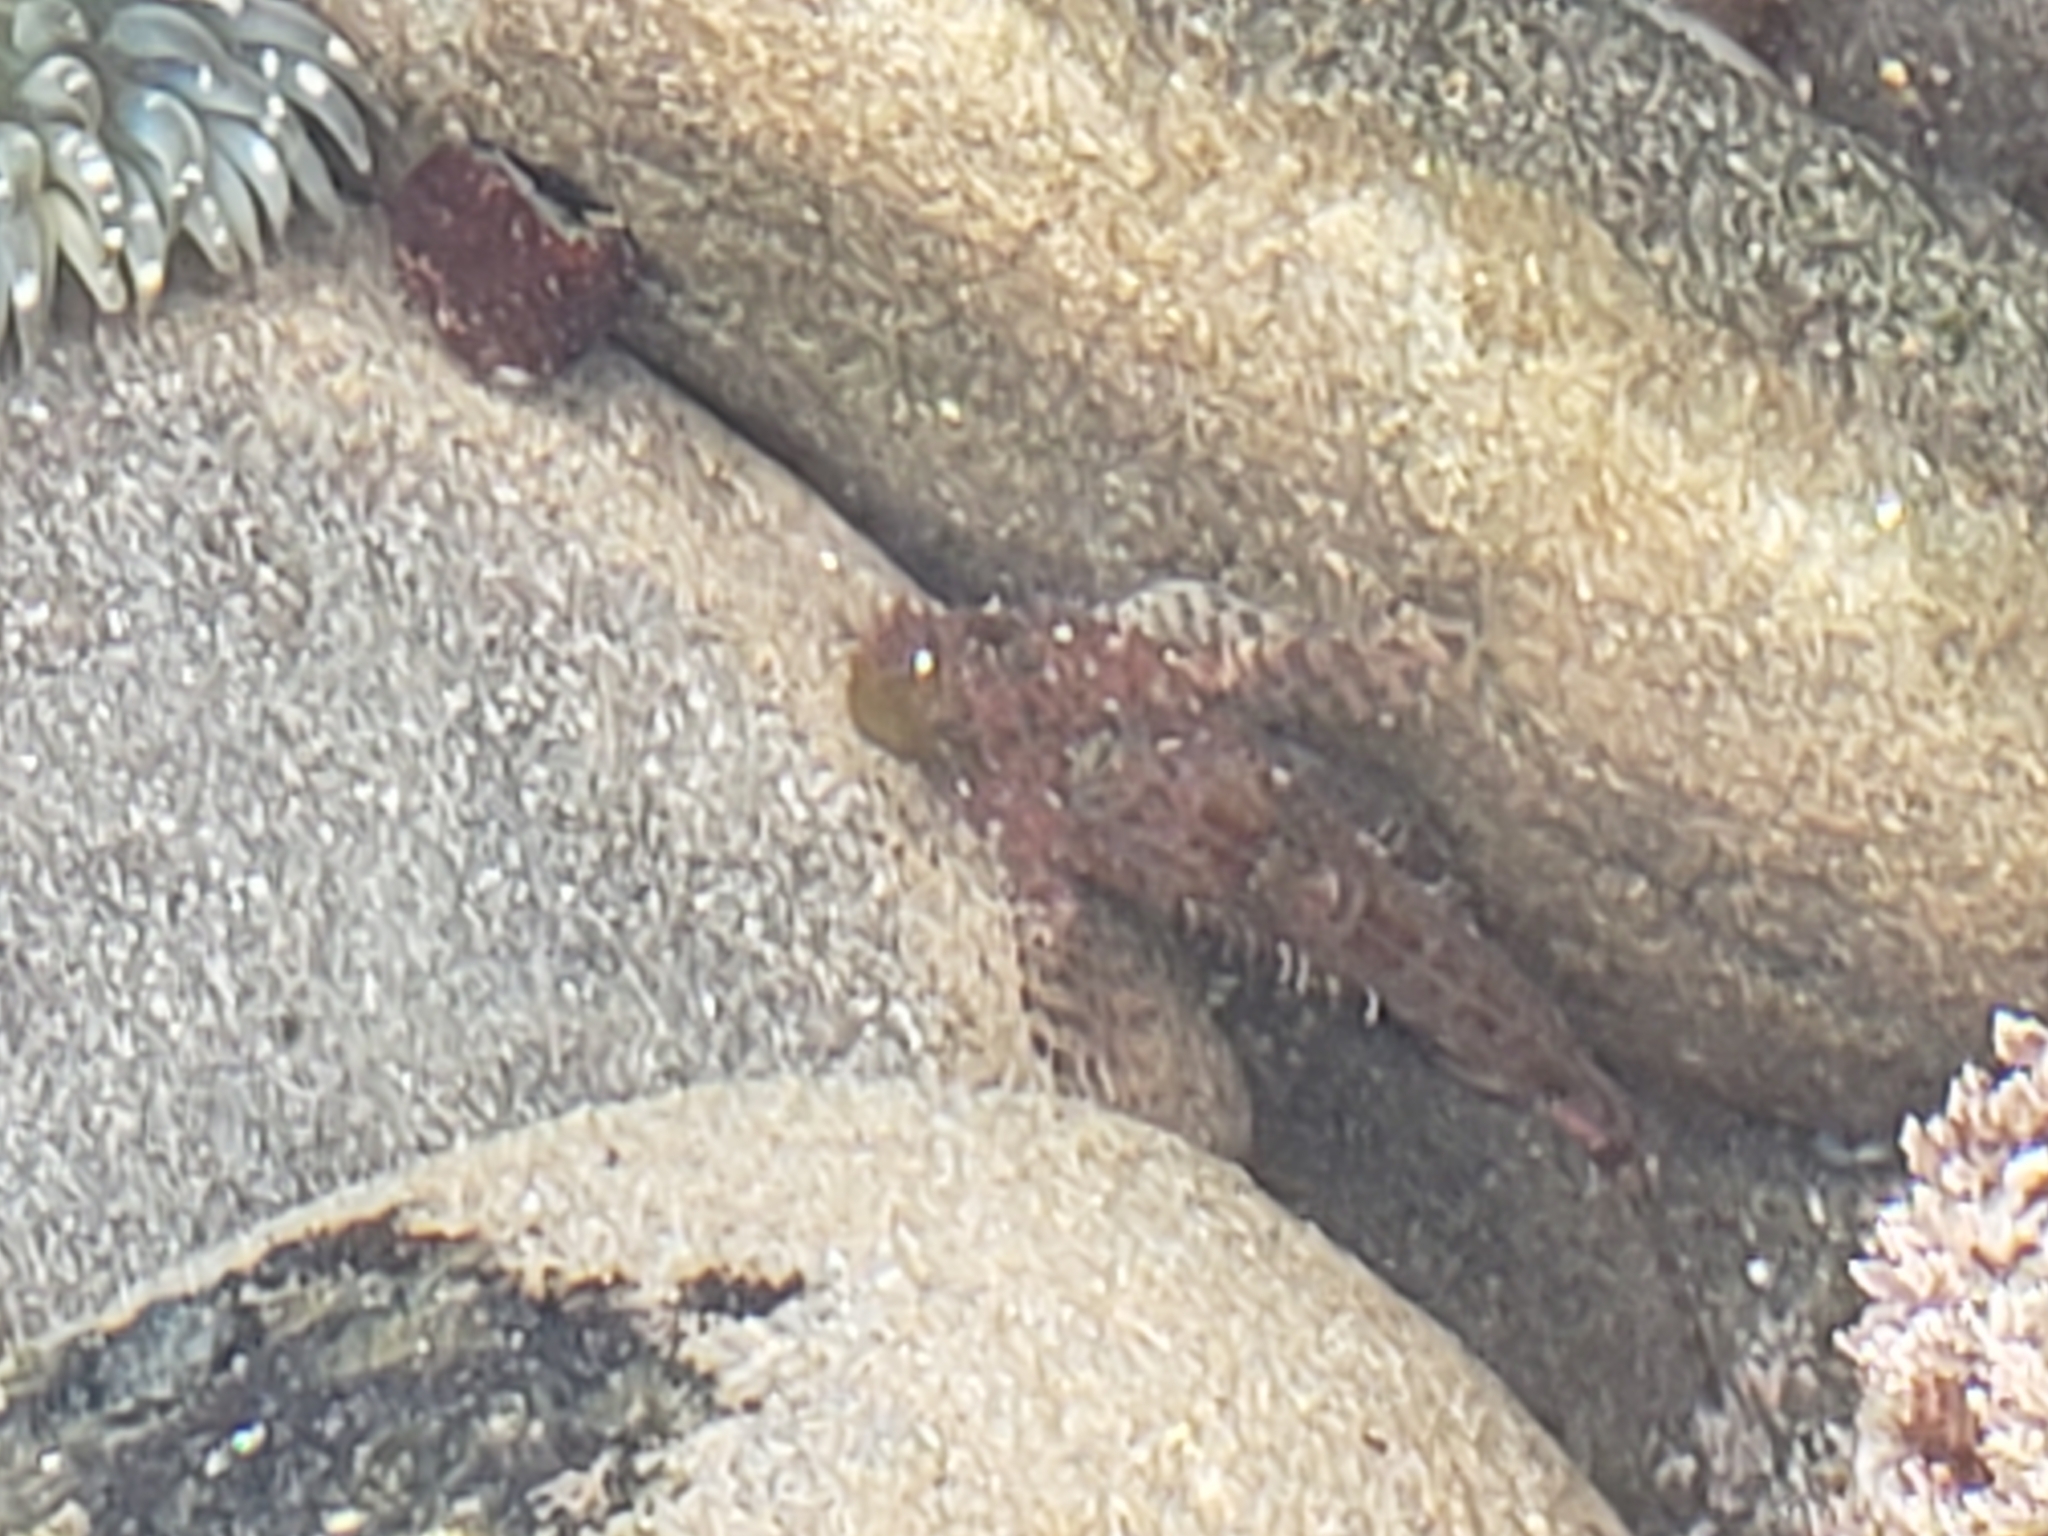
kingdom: Animalia
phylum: Chordata
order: Scorpaeniformes
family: Cottidae
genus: Clinocottus
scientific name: Clinocottus analis
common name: Woolly sculpin
